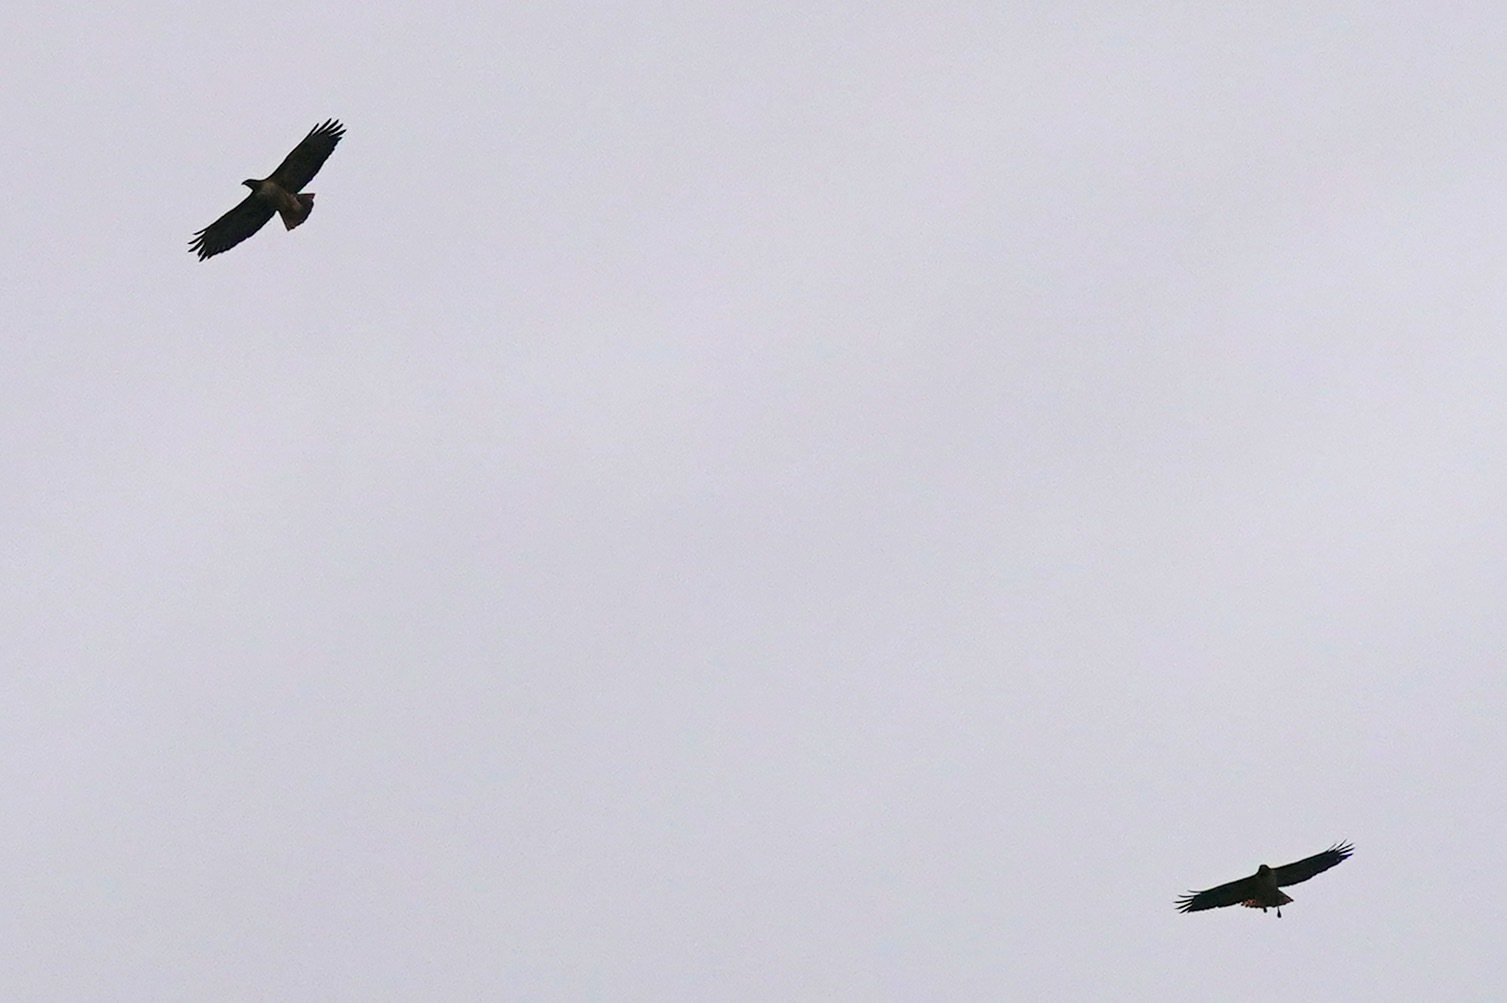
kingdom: Animalia
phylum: Chordata
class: Aves
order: Accipitriformes
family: Accipitridae
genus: Buteo
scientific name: Buteo jamaicensis
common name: Red-tailed hawk
